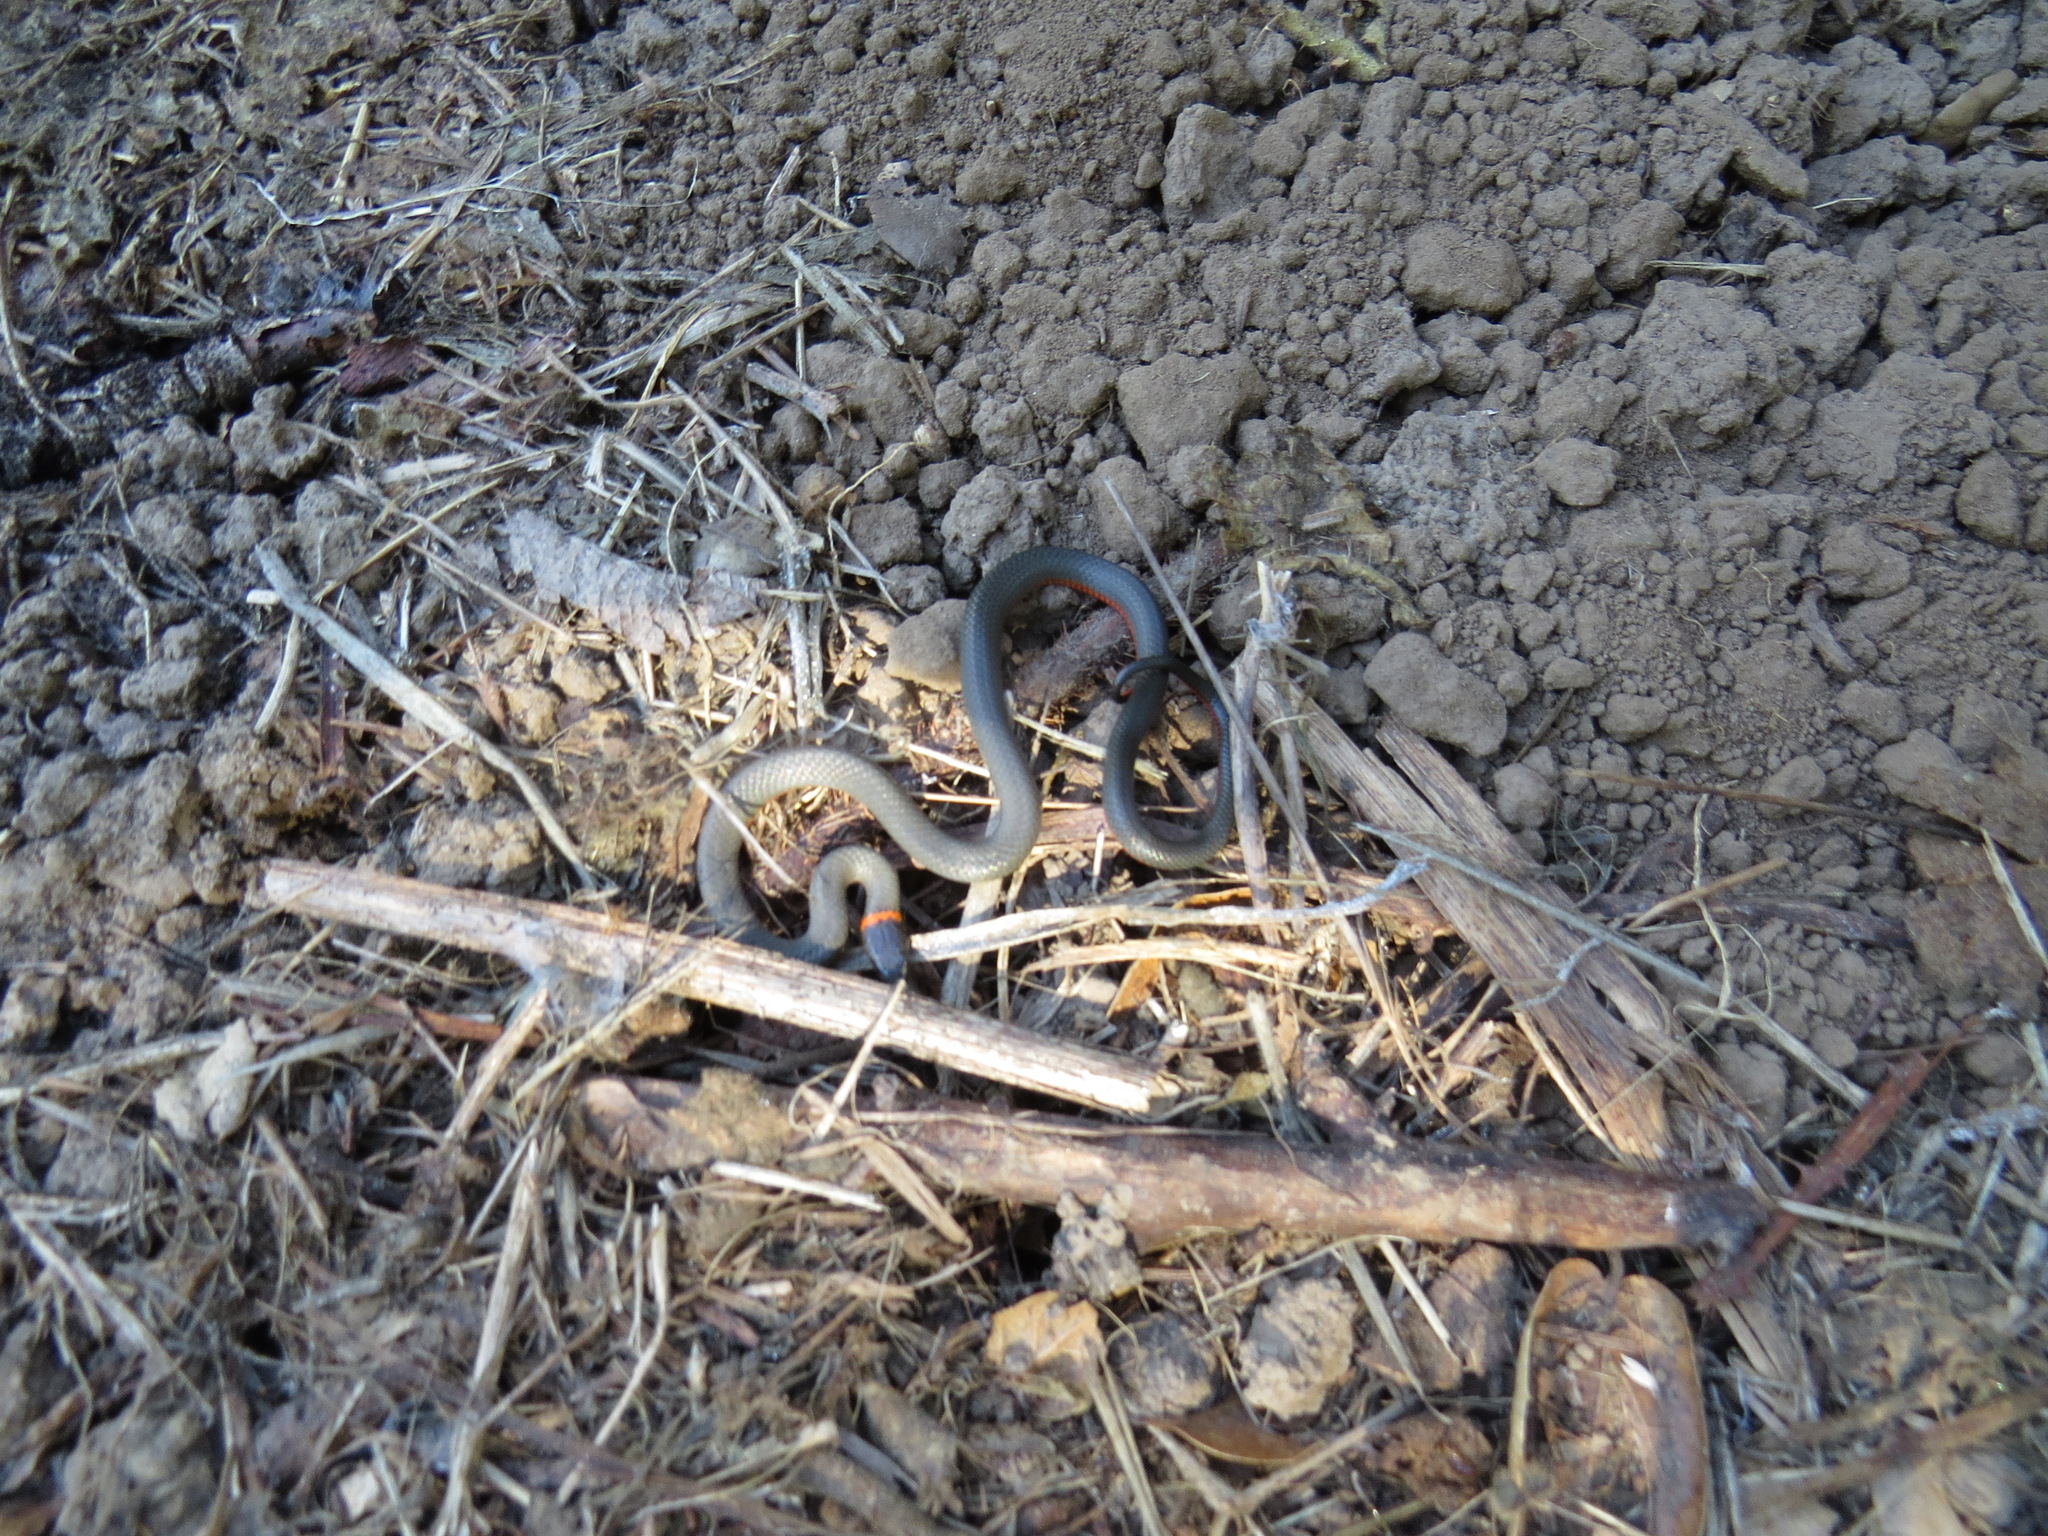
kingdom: Animalia
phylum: Chordata
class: Squamata
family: Colubridae
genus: Diadophis
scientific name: Diadophis punctatus
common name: Ringneck snake
